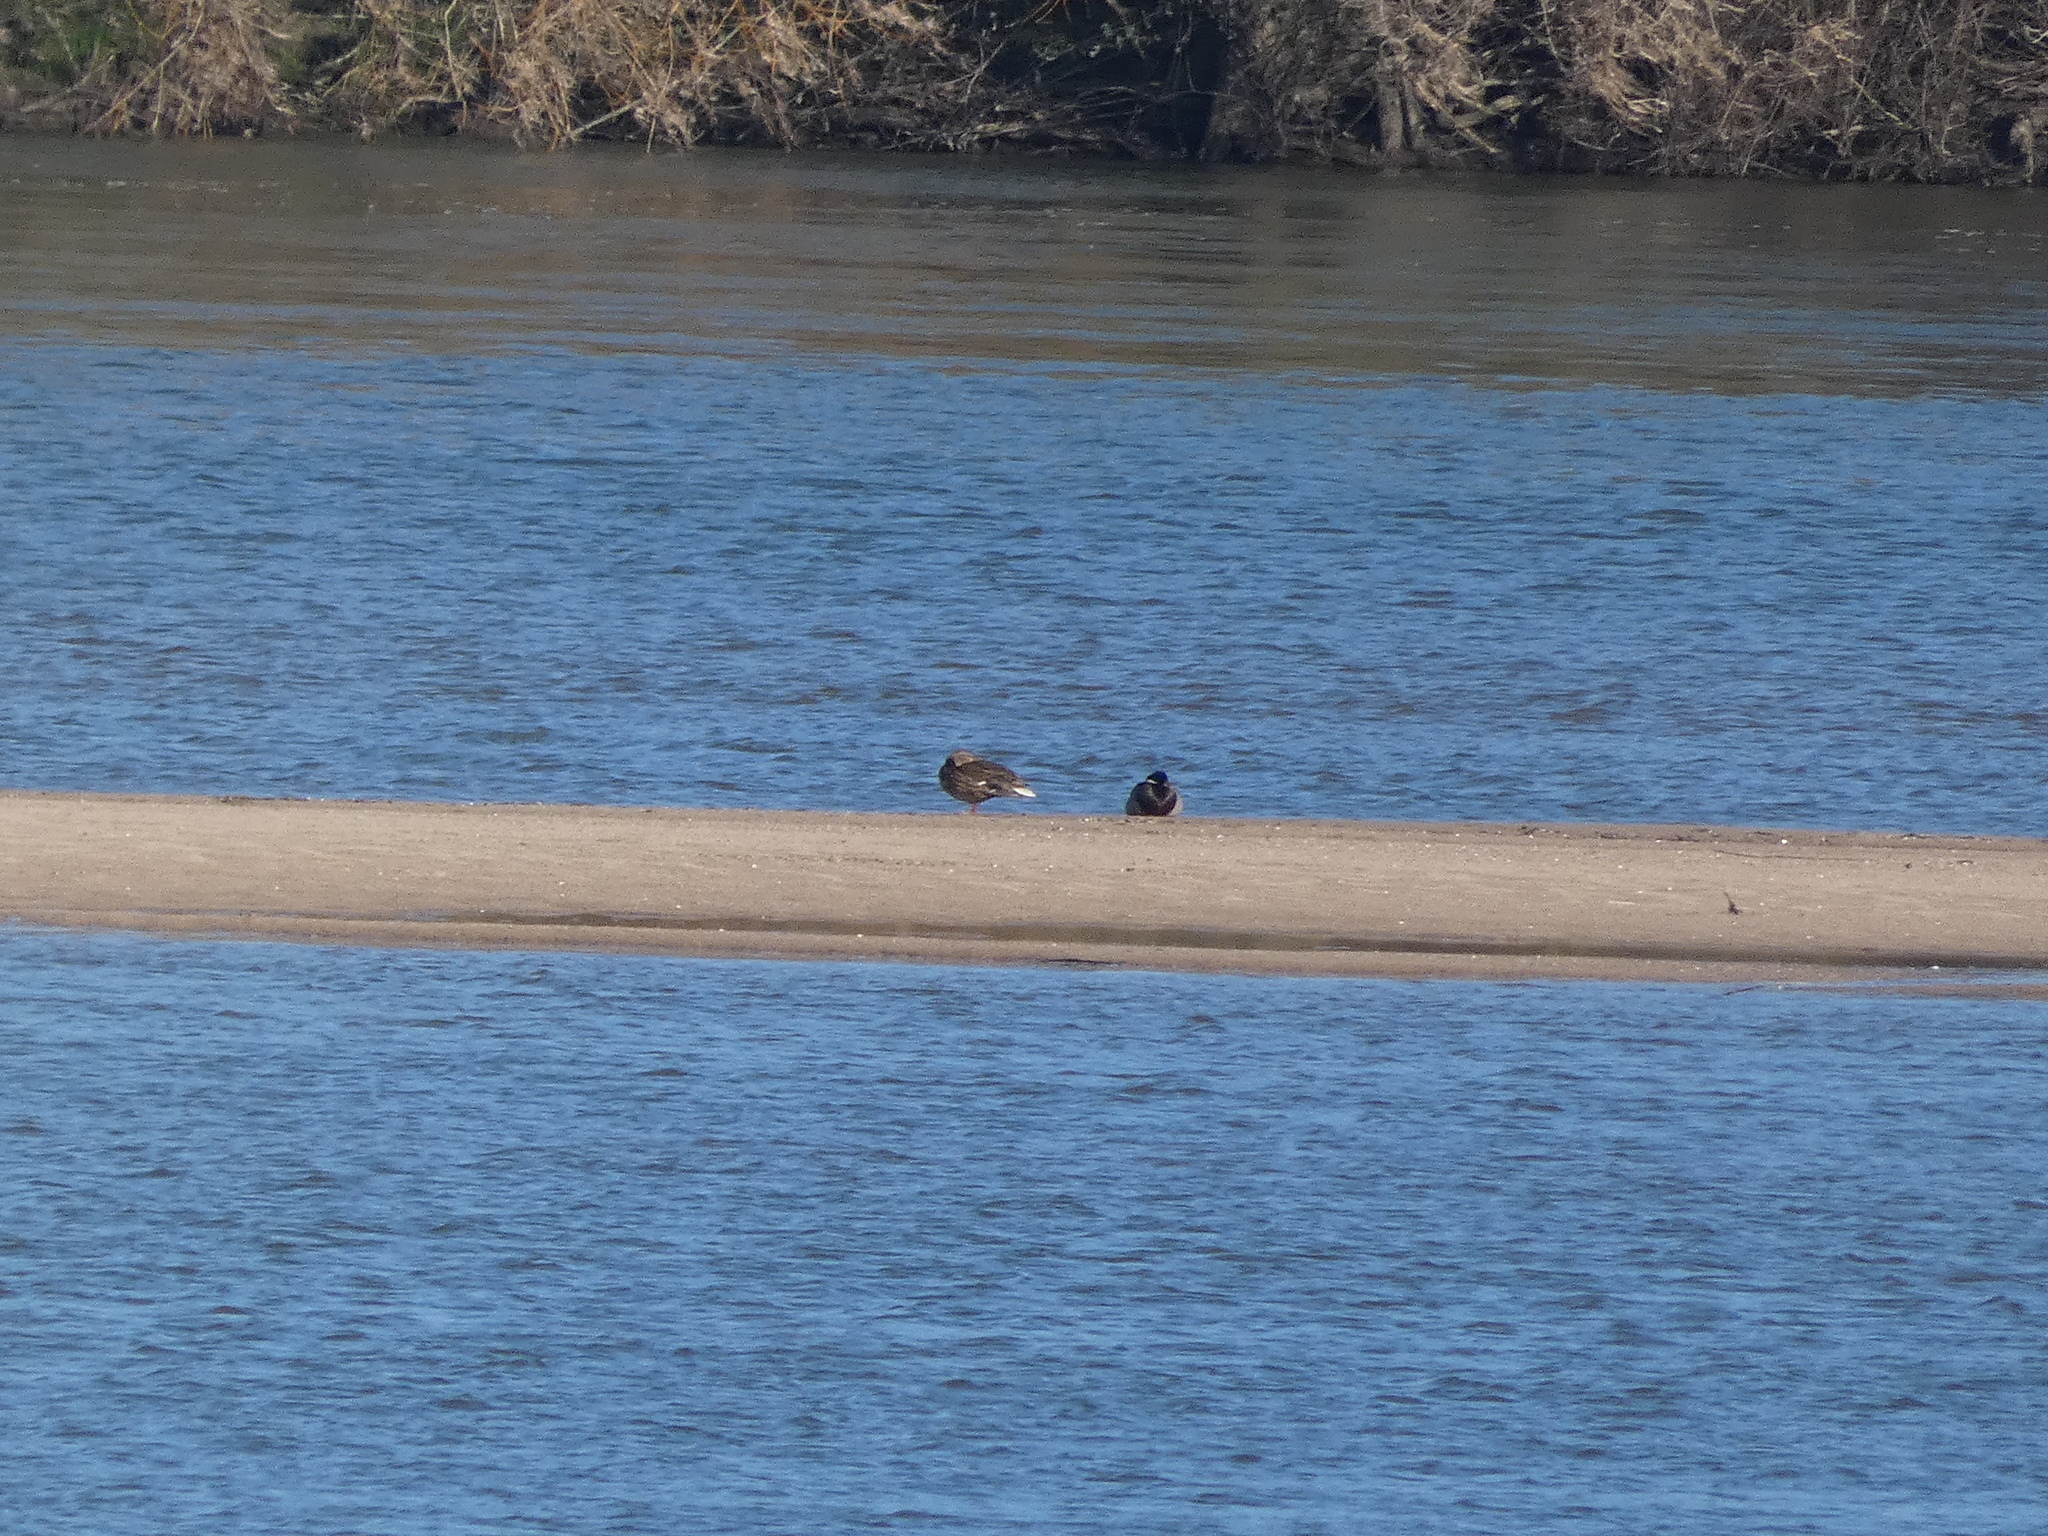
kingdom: Animalia
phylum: Chordata
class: Aves
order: Anseriformes
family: Anatidae
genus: Anas
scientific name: Anas platyrhynchos
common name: Mallard
